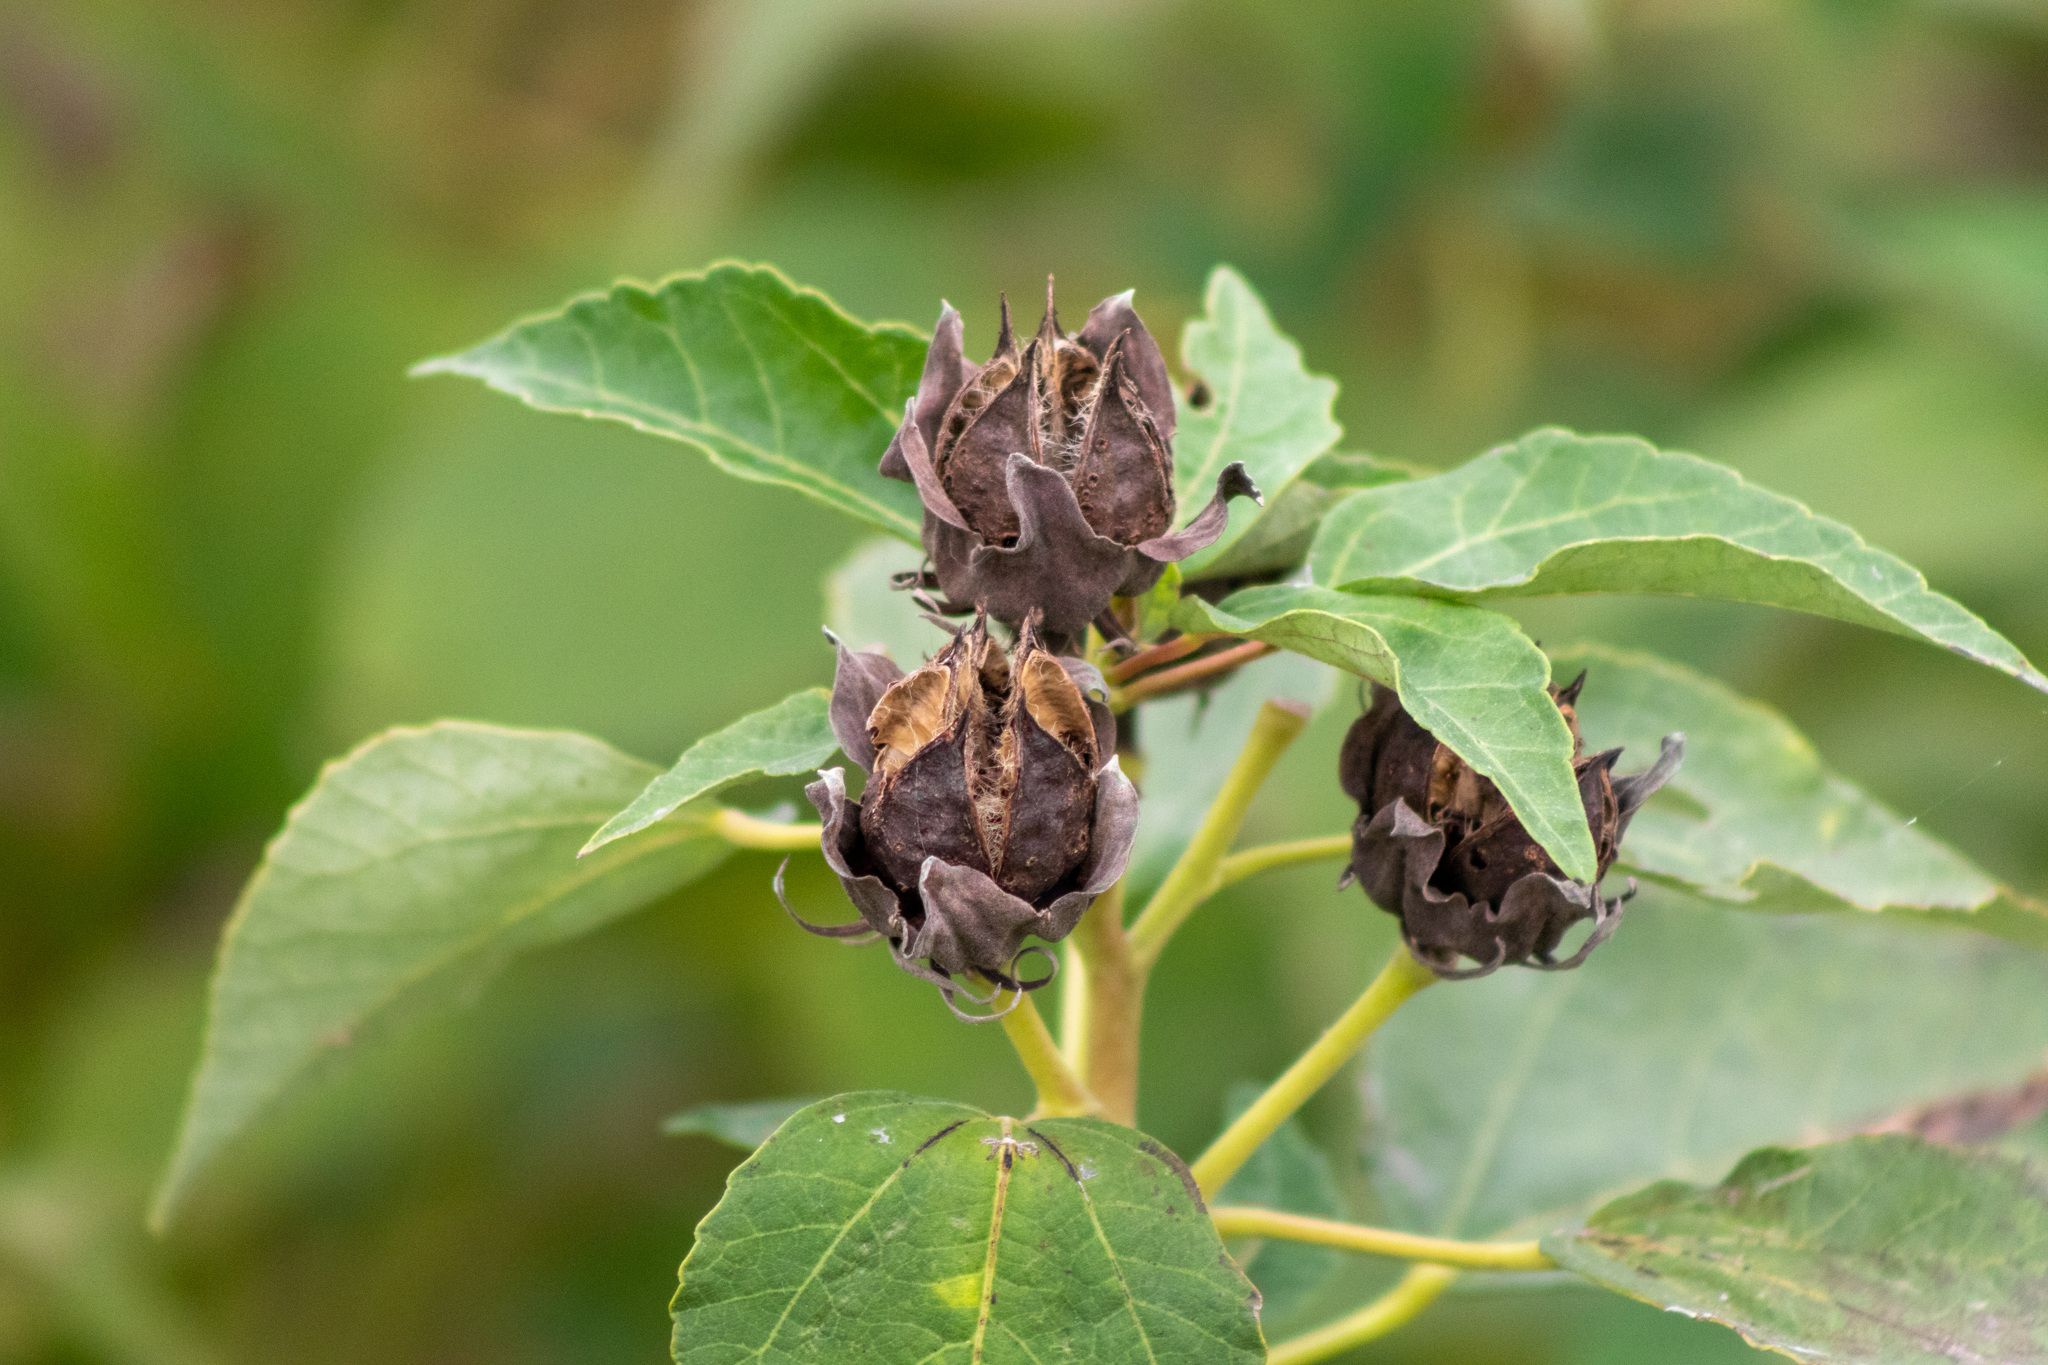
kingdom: Plantae
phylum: Tracheophyta
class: Magnoliopsida
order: Malvales
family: Malvaceae
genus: Hibiscus
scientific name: Hibiscus moscheutos
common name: Common rose-mallow
